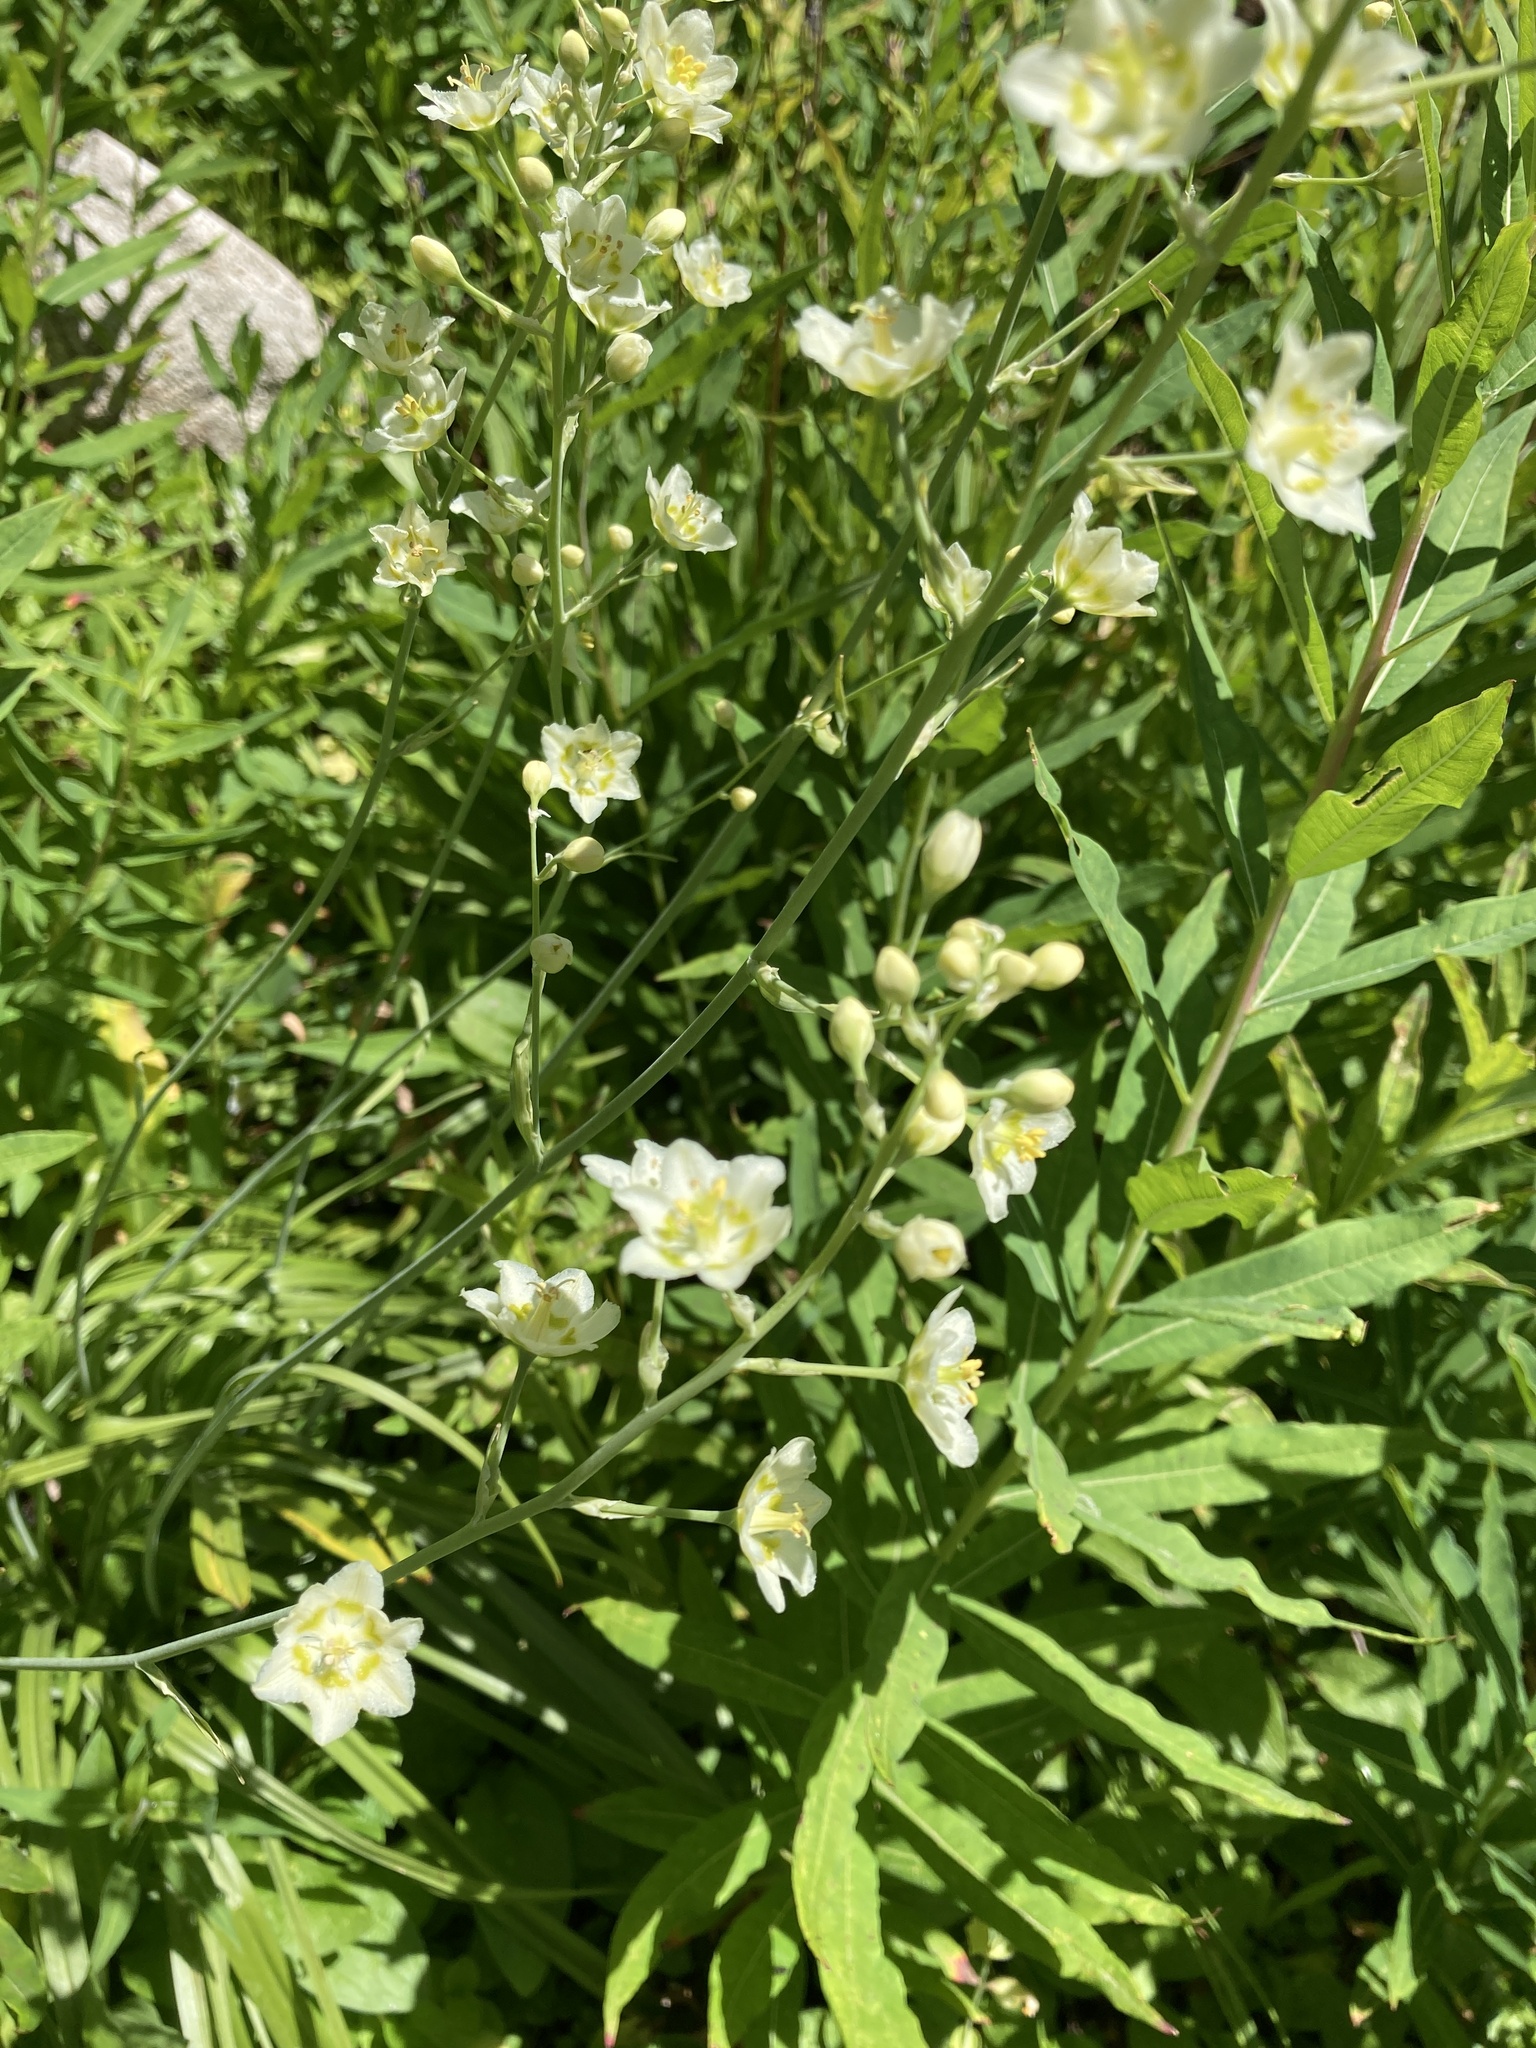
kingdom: Plantae
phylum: Tracheophyta
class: Liliopsida
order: Liliales
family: Melanthiaceae
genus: Anticlea
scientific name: Anticlea elegans
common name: Mountain death camas
